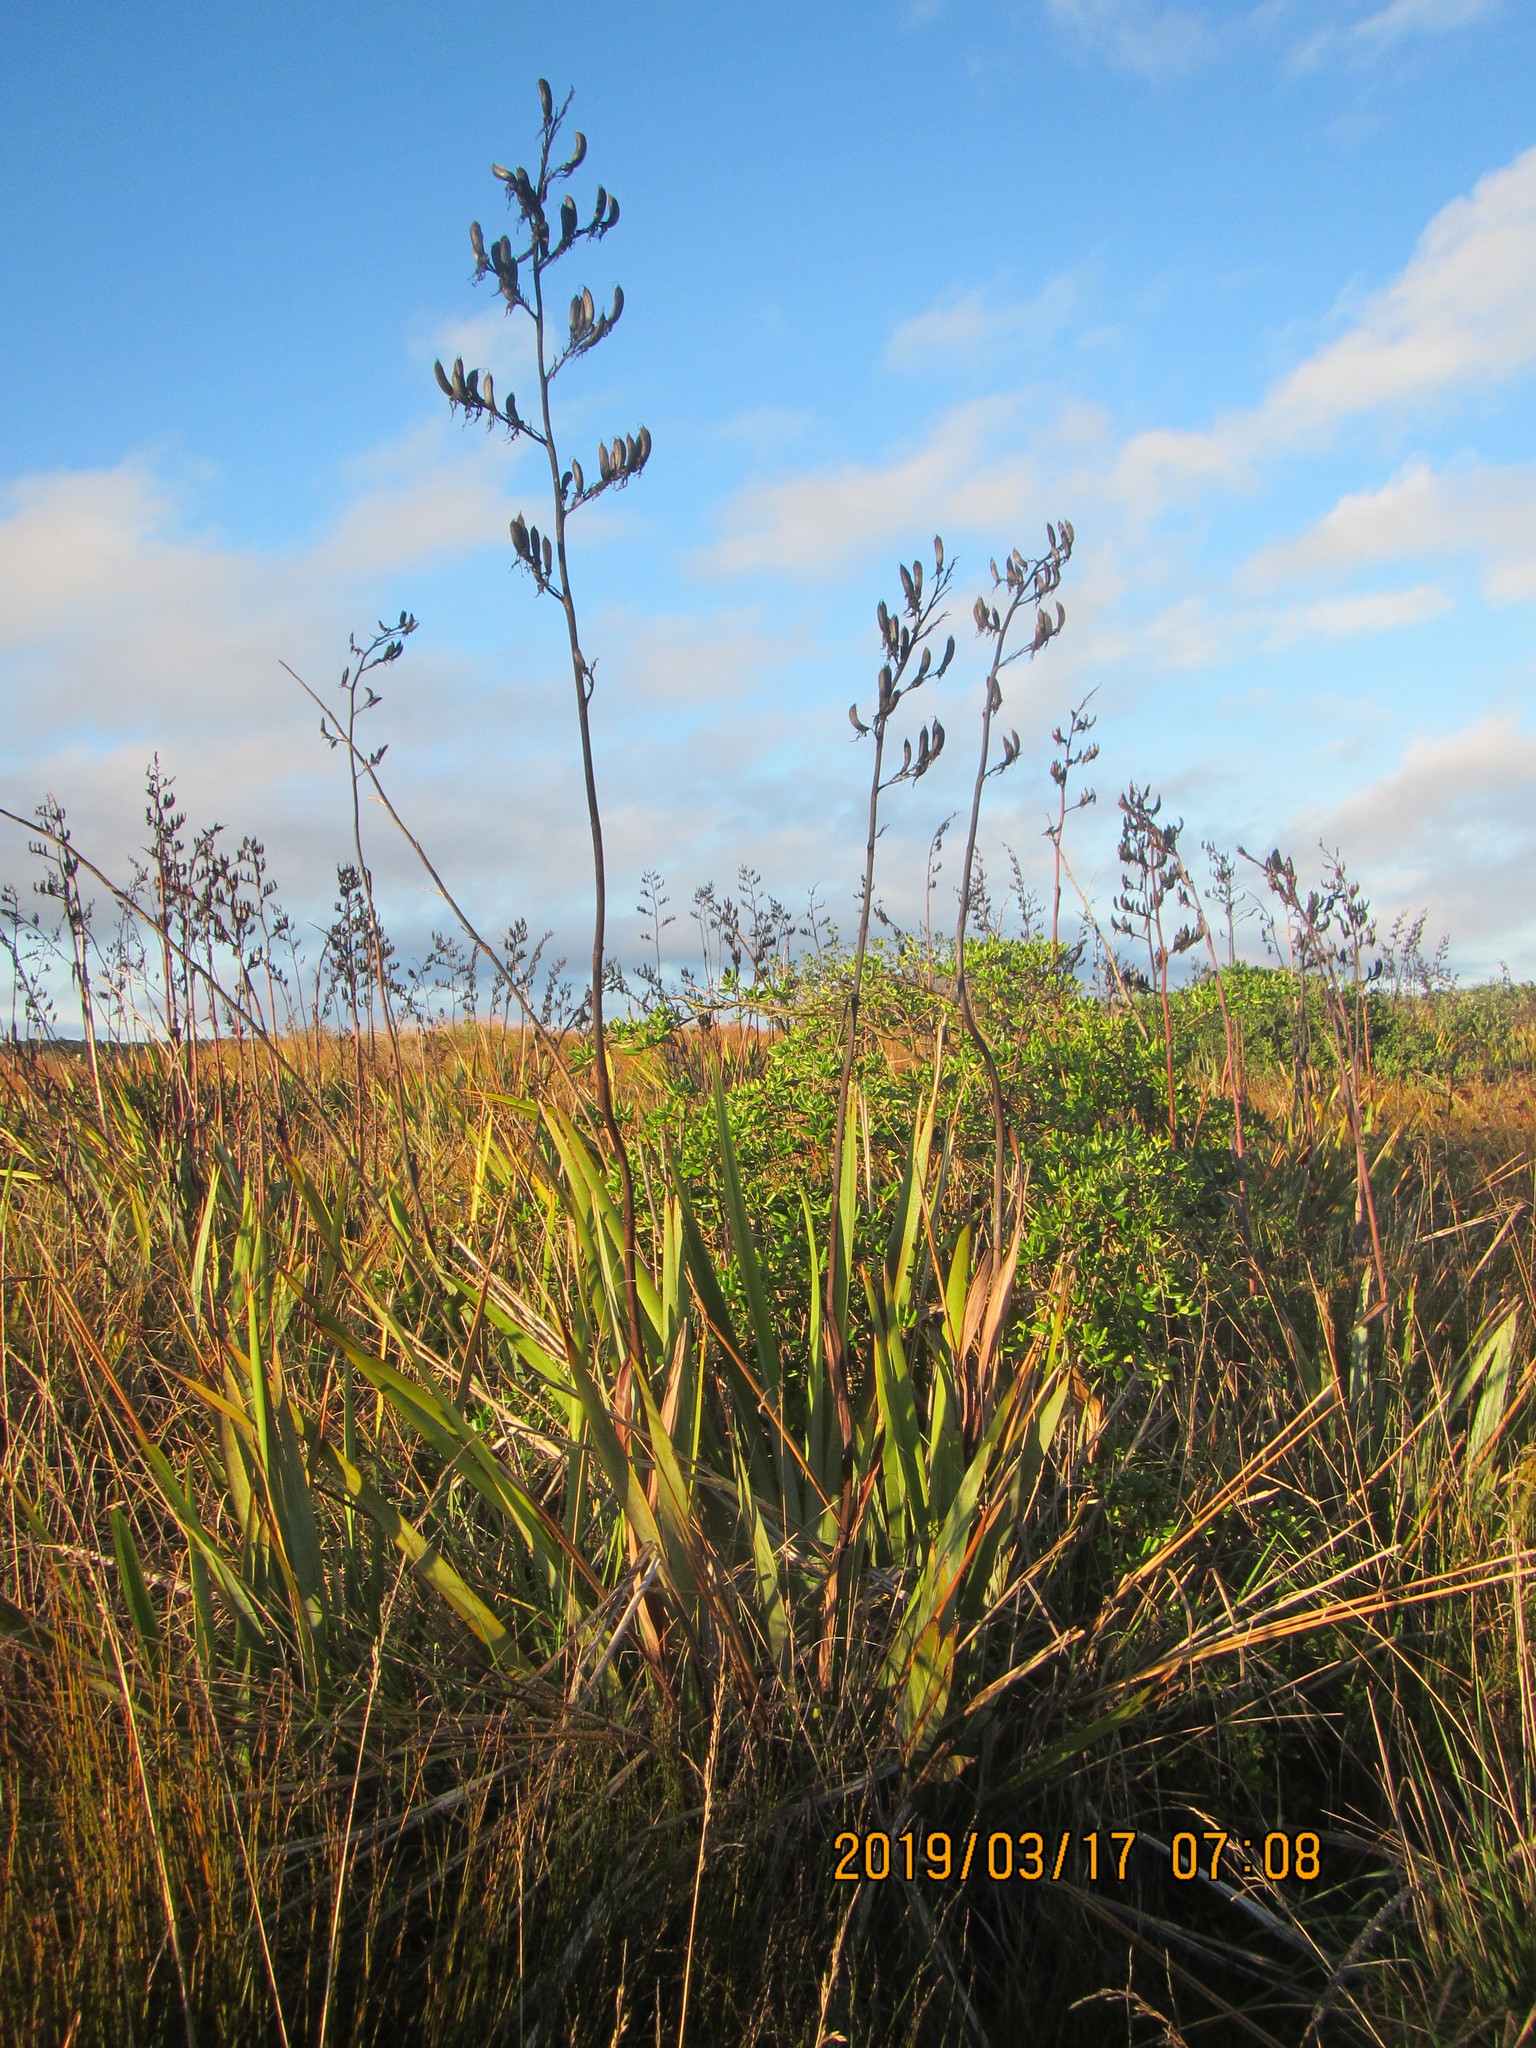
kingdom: Plantae
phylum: Tracheophyta
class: Liliopsida
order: Asparagales
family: Asphodelaceae
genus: Phormium
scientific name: Phormium tenax
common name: New zealand flax
